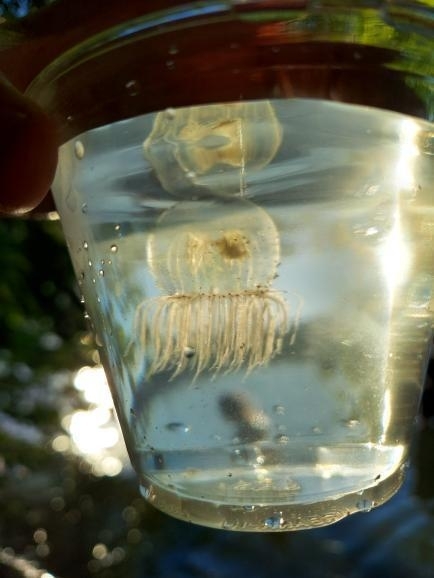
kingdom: Animalia
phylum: Cnidaria
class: Hydrozoa
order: Anthoathecata
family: Corynidae
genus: Polyorchis
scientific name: Polyorchis penicillatus
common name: Penicillate jellyfish
